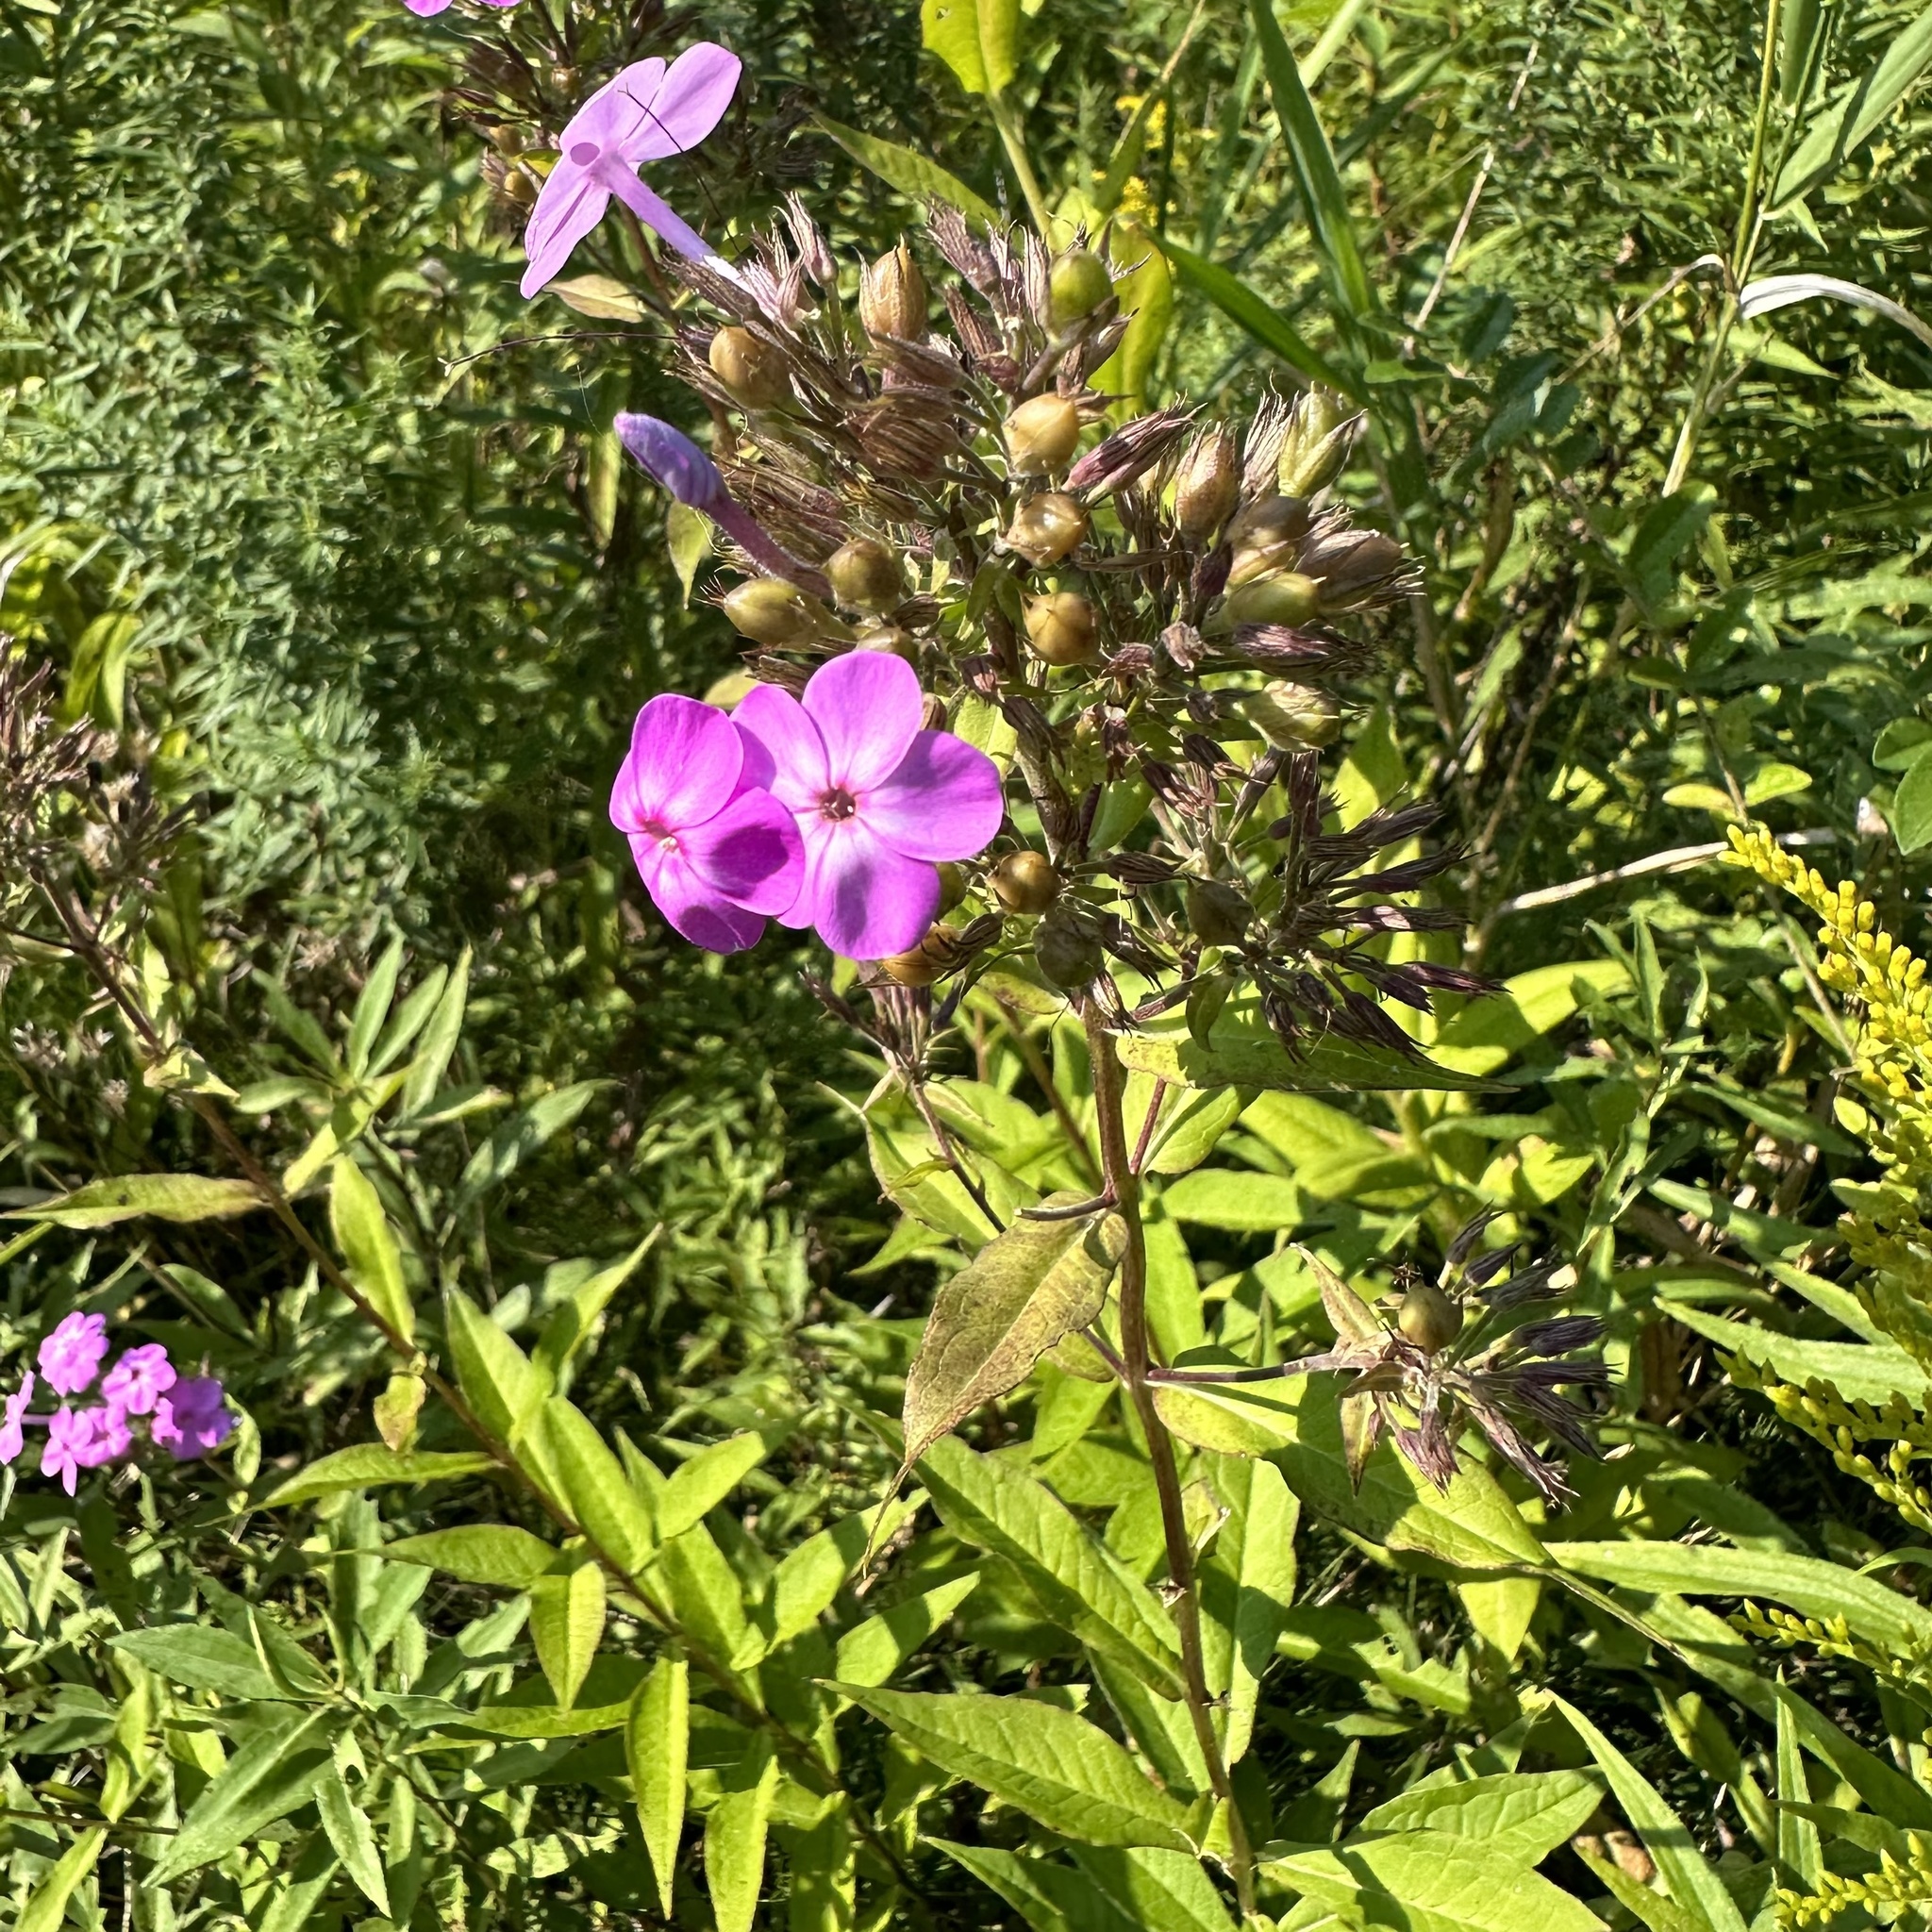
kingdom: Plantae
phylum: Tracheophyta
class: Magnoliopsida
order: Ericales
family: Polemoniaceae
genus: Phlox
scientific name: Phlox paniculata
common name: Fall phlox
